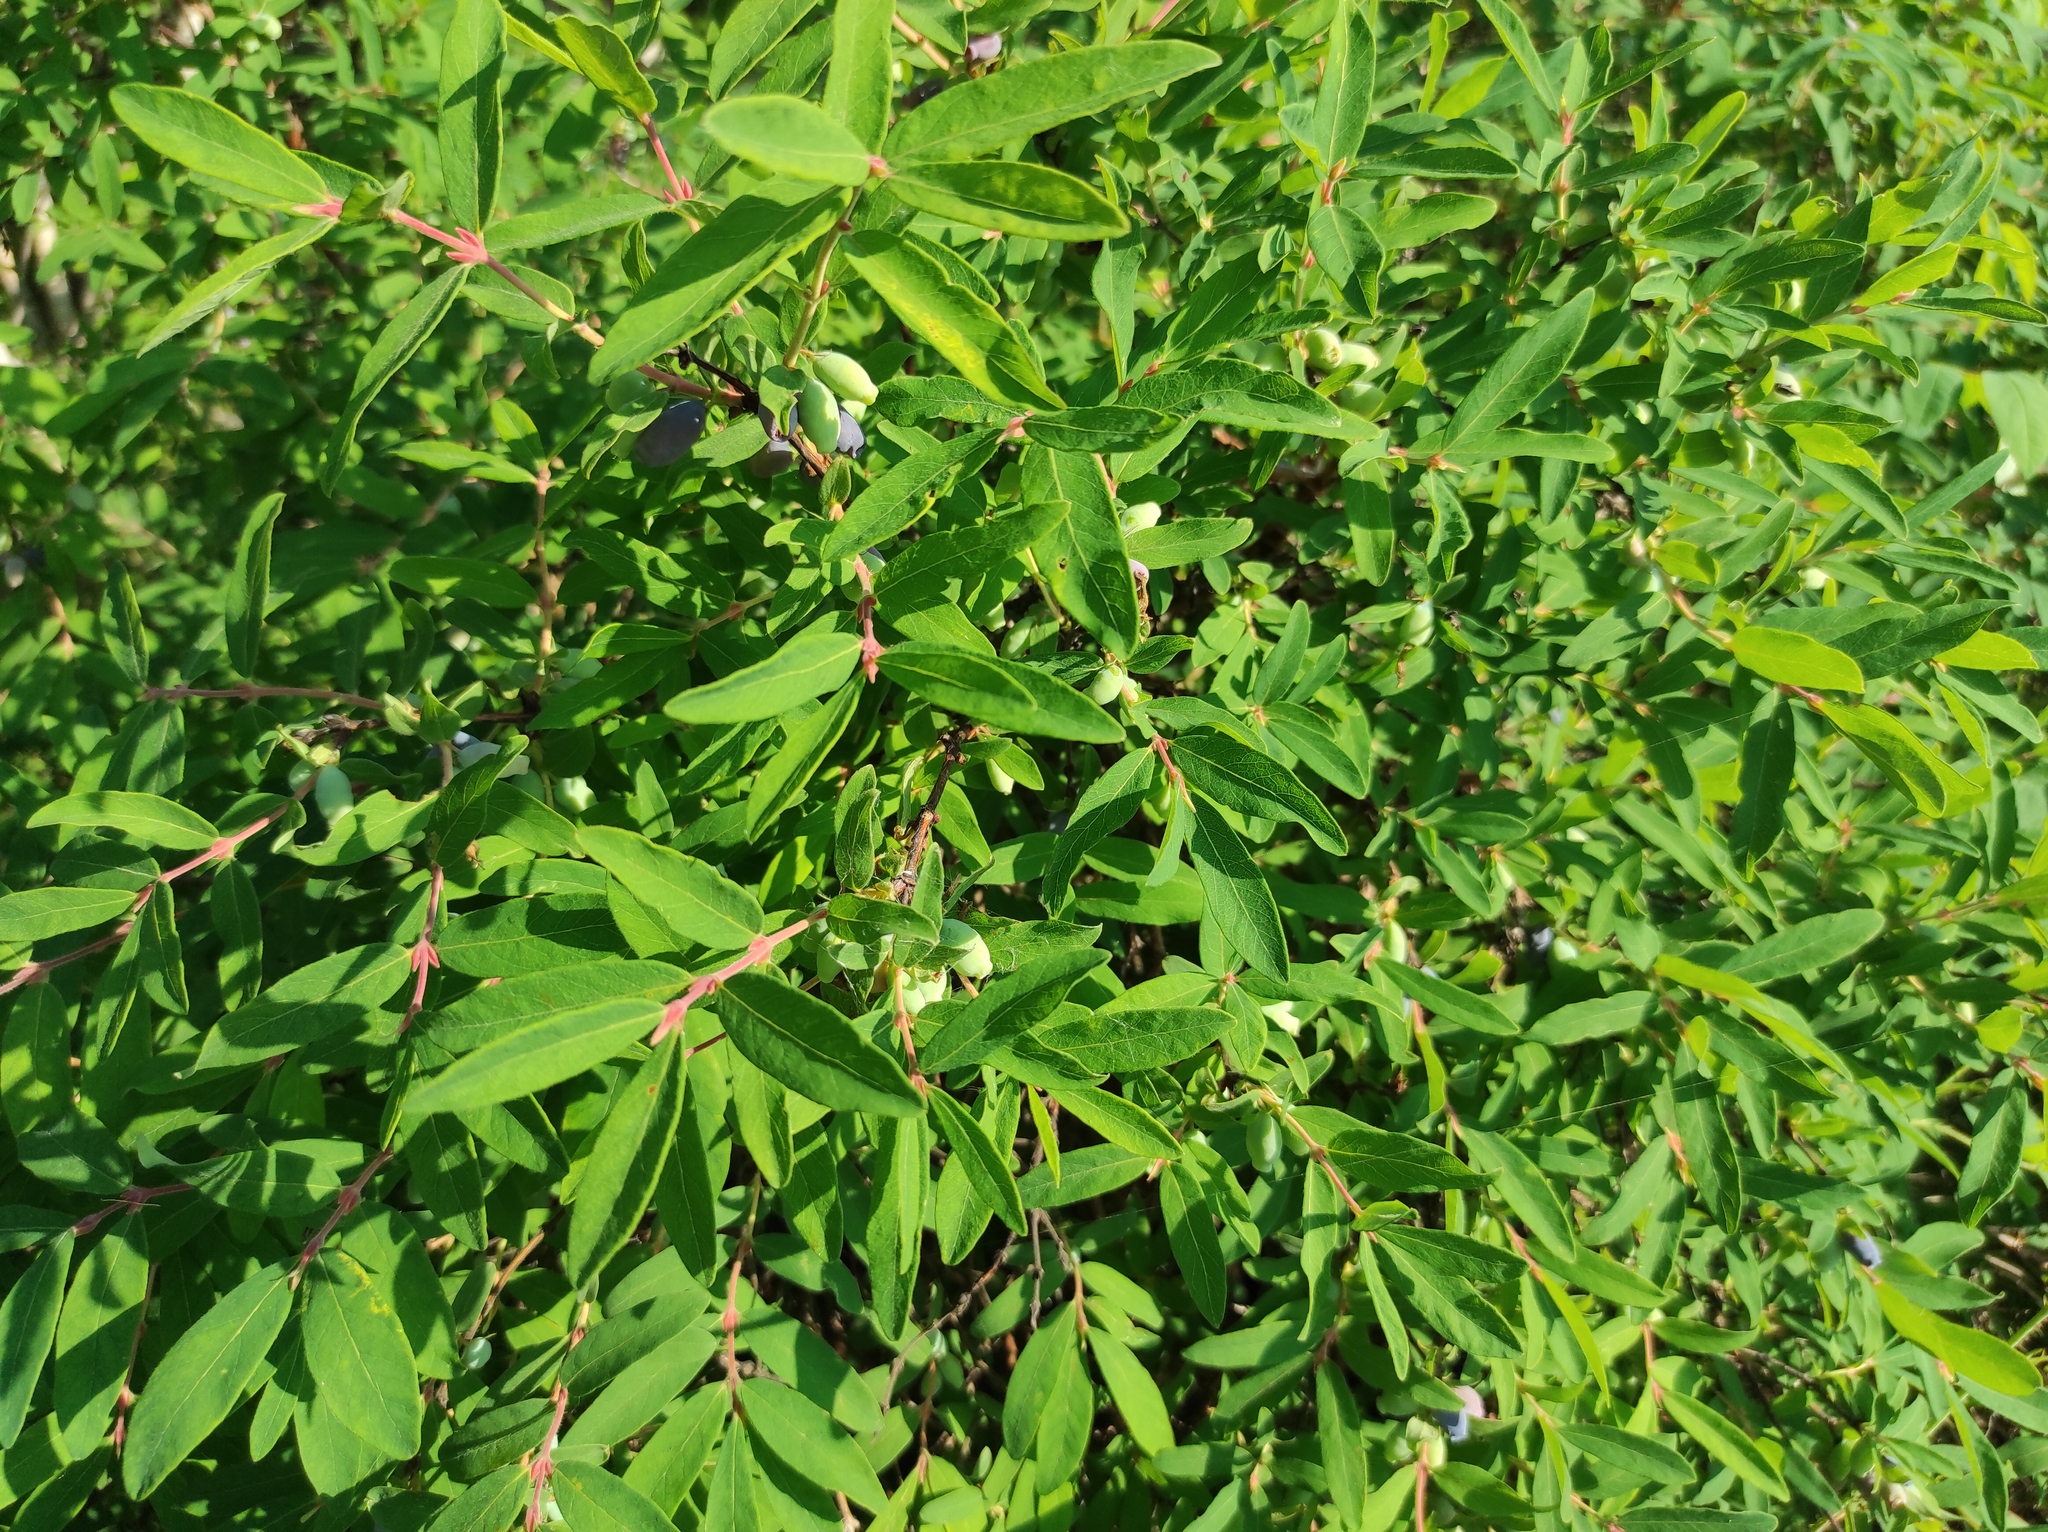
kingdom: Plantae
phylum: Tracheophyta
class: Magnoliopsida
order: Dipsacales
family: Caprifoliaceae
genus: Lonicera
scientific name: Lonicera caerulea
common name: Blue honeysuckle
